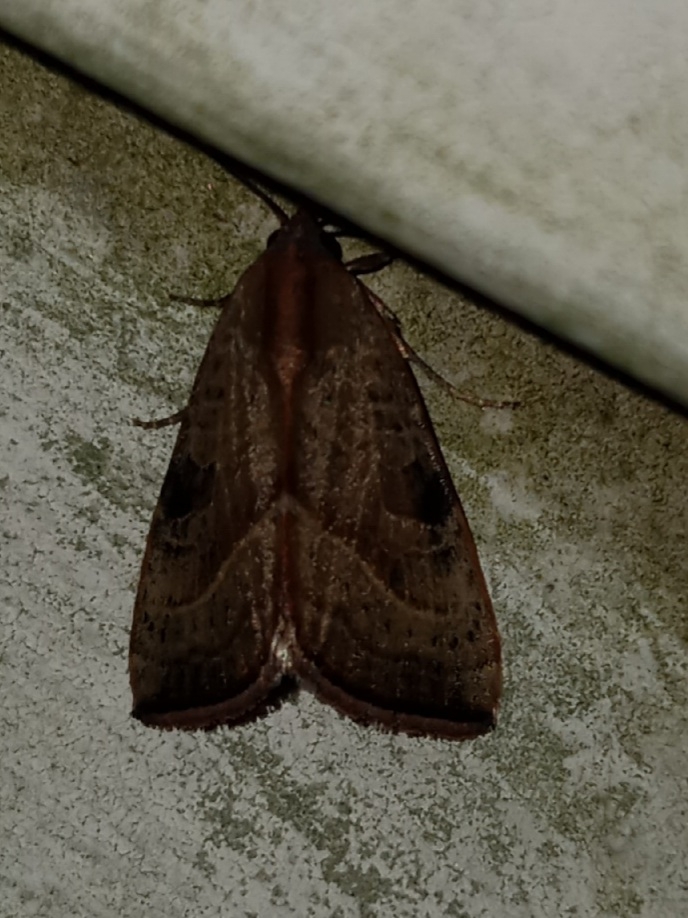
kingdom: Animalia
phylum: Arthropoda
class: Insecta
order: Lepidoptera
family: Noctuidae
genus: Galgula
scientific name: Galgula partita
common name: Wedgeling
